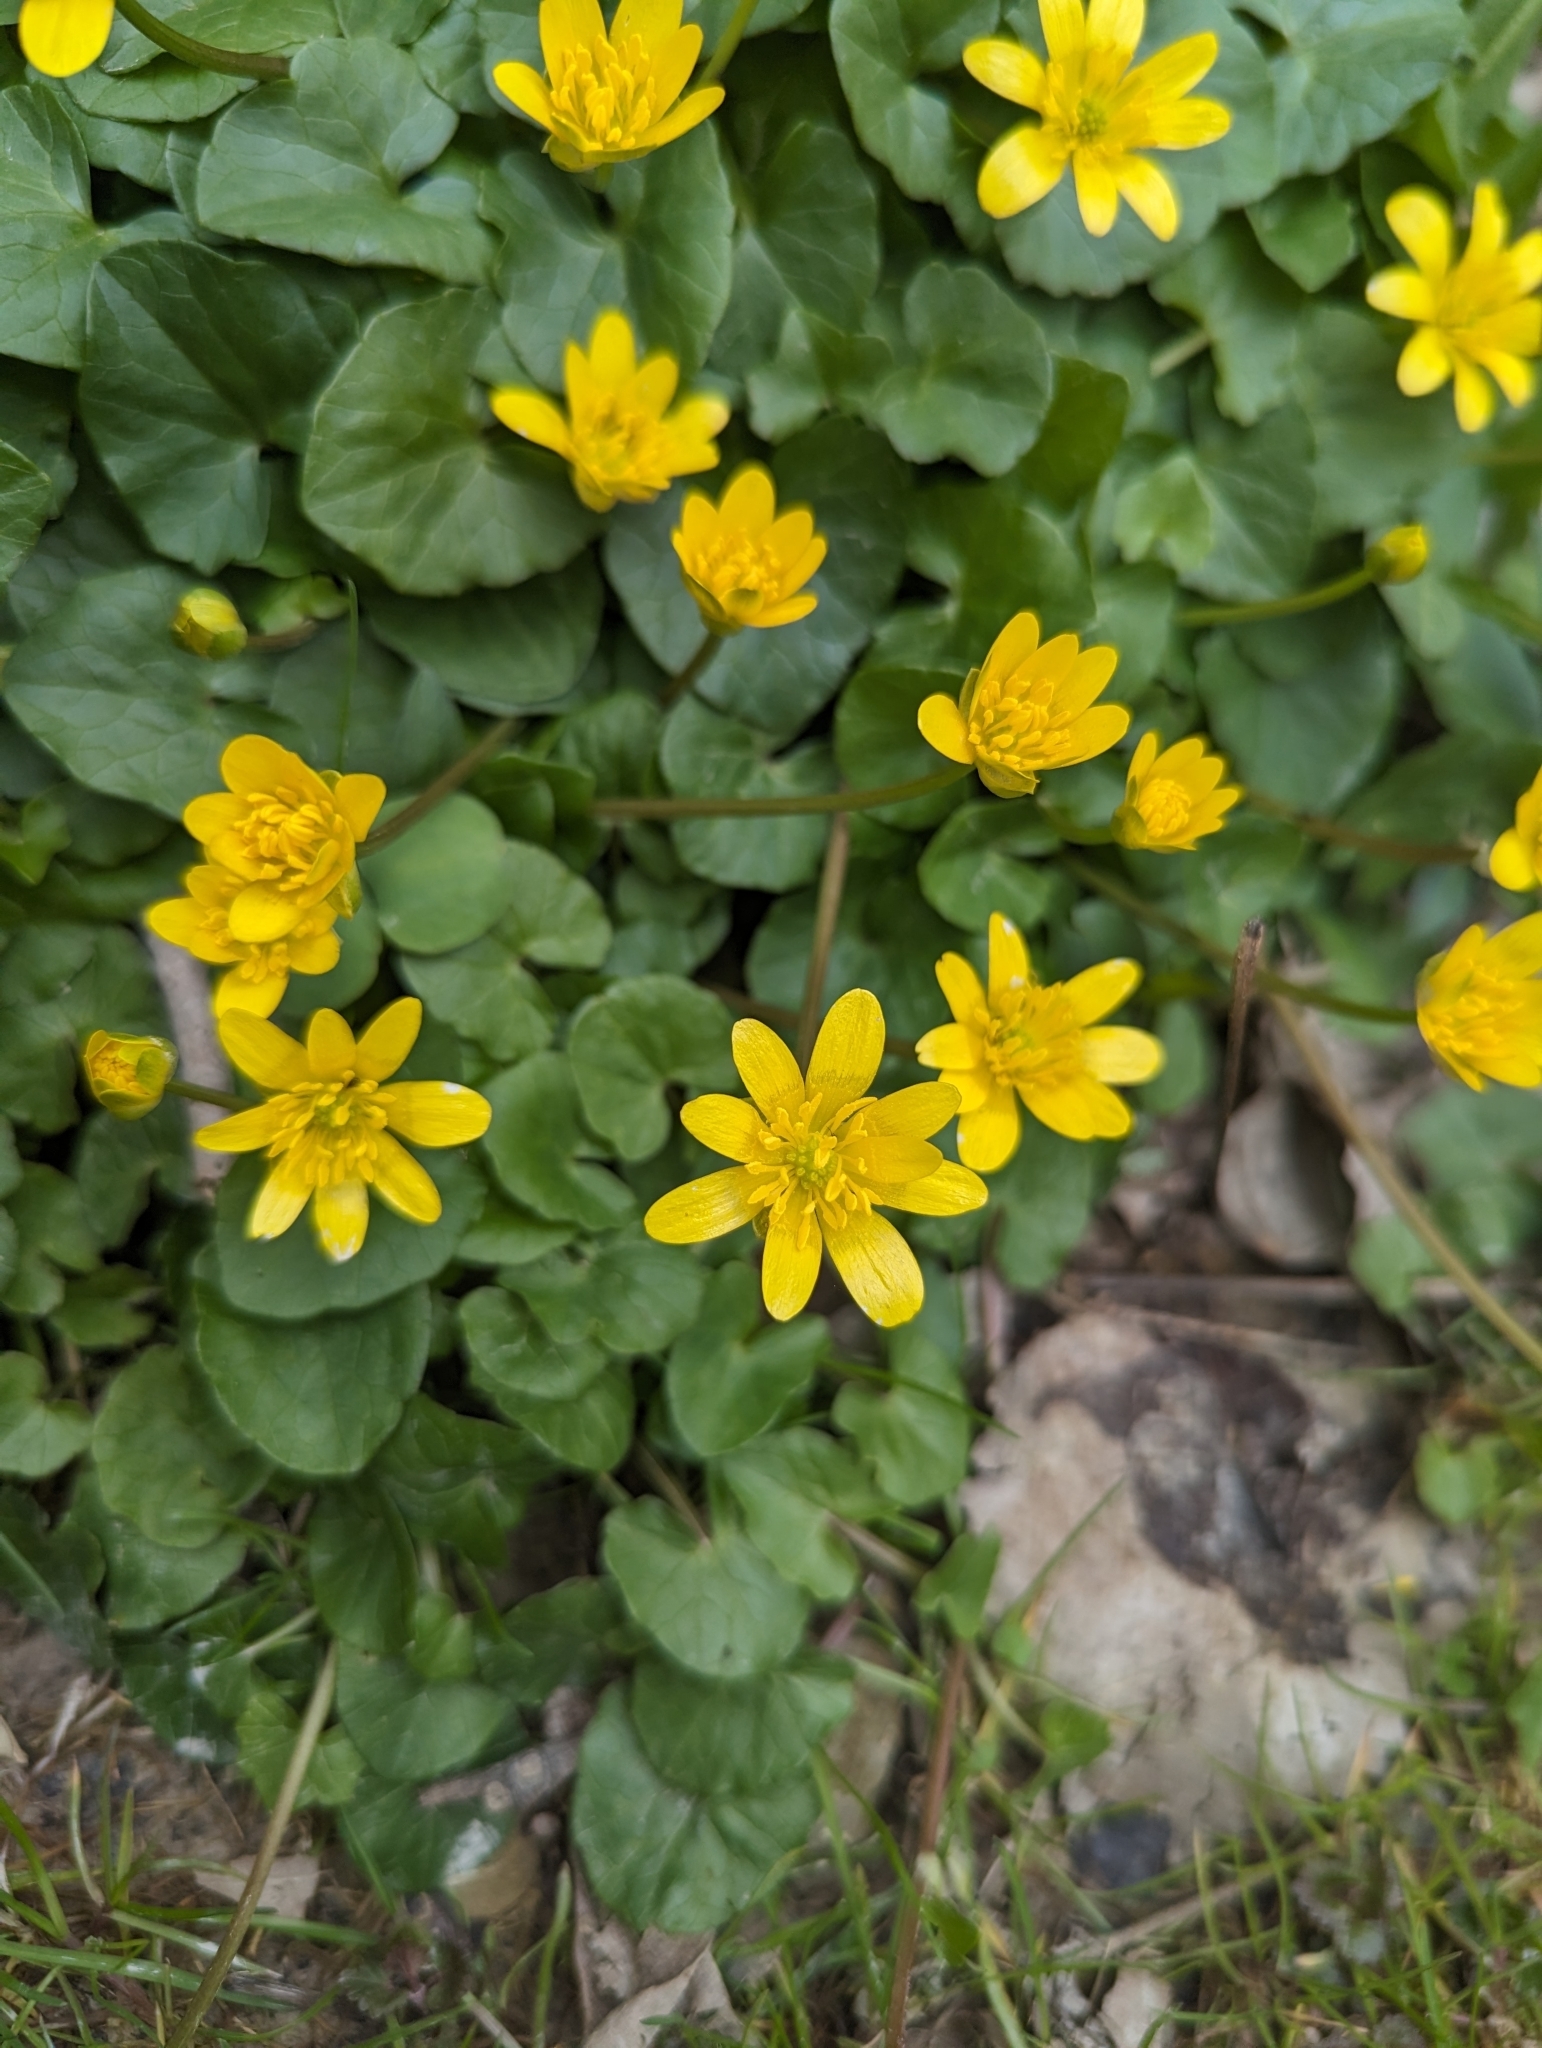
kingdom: Plantae
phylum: Tracheophyta
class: Magnoliopsida
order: Ranunculales
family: Ranunculaceae
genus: Ficaria
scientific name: Ficaria verna
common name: Lesser celandine
